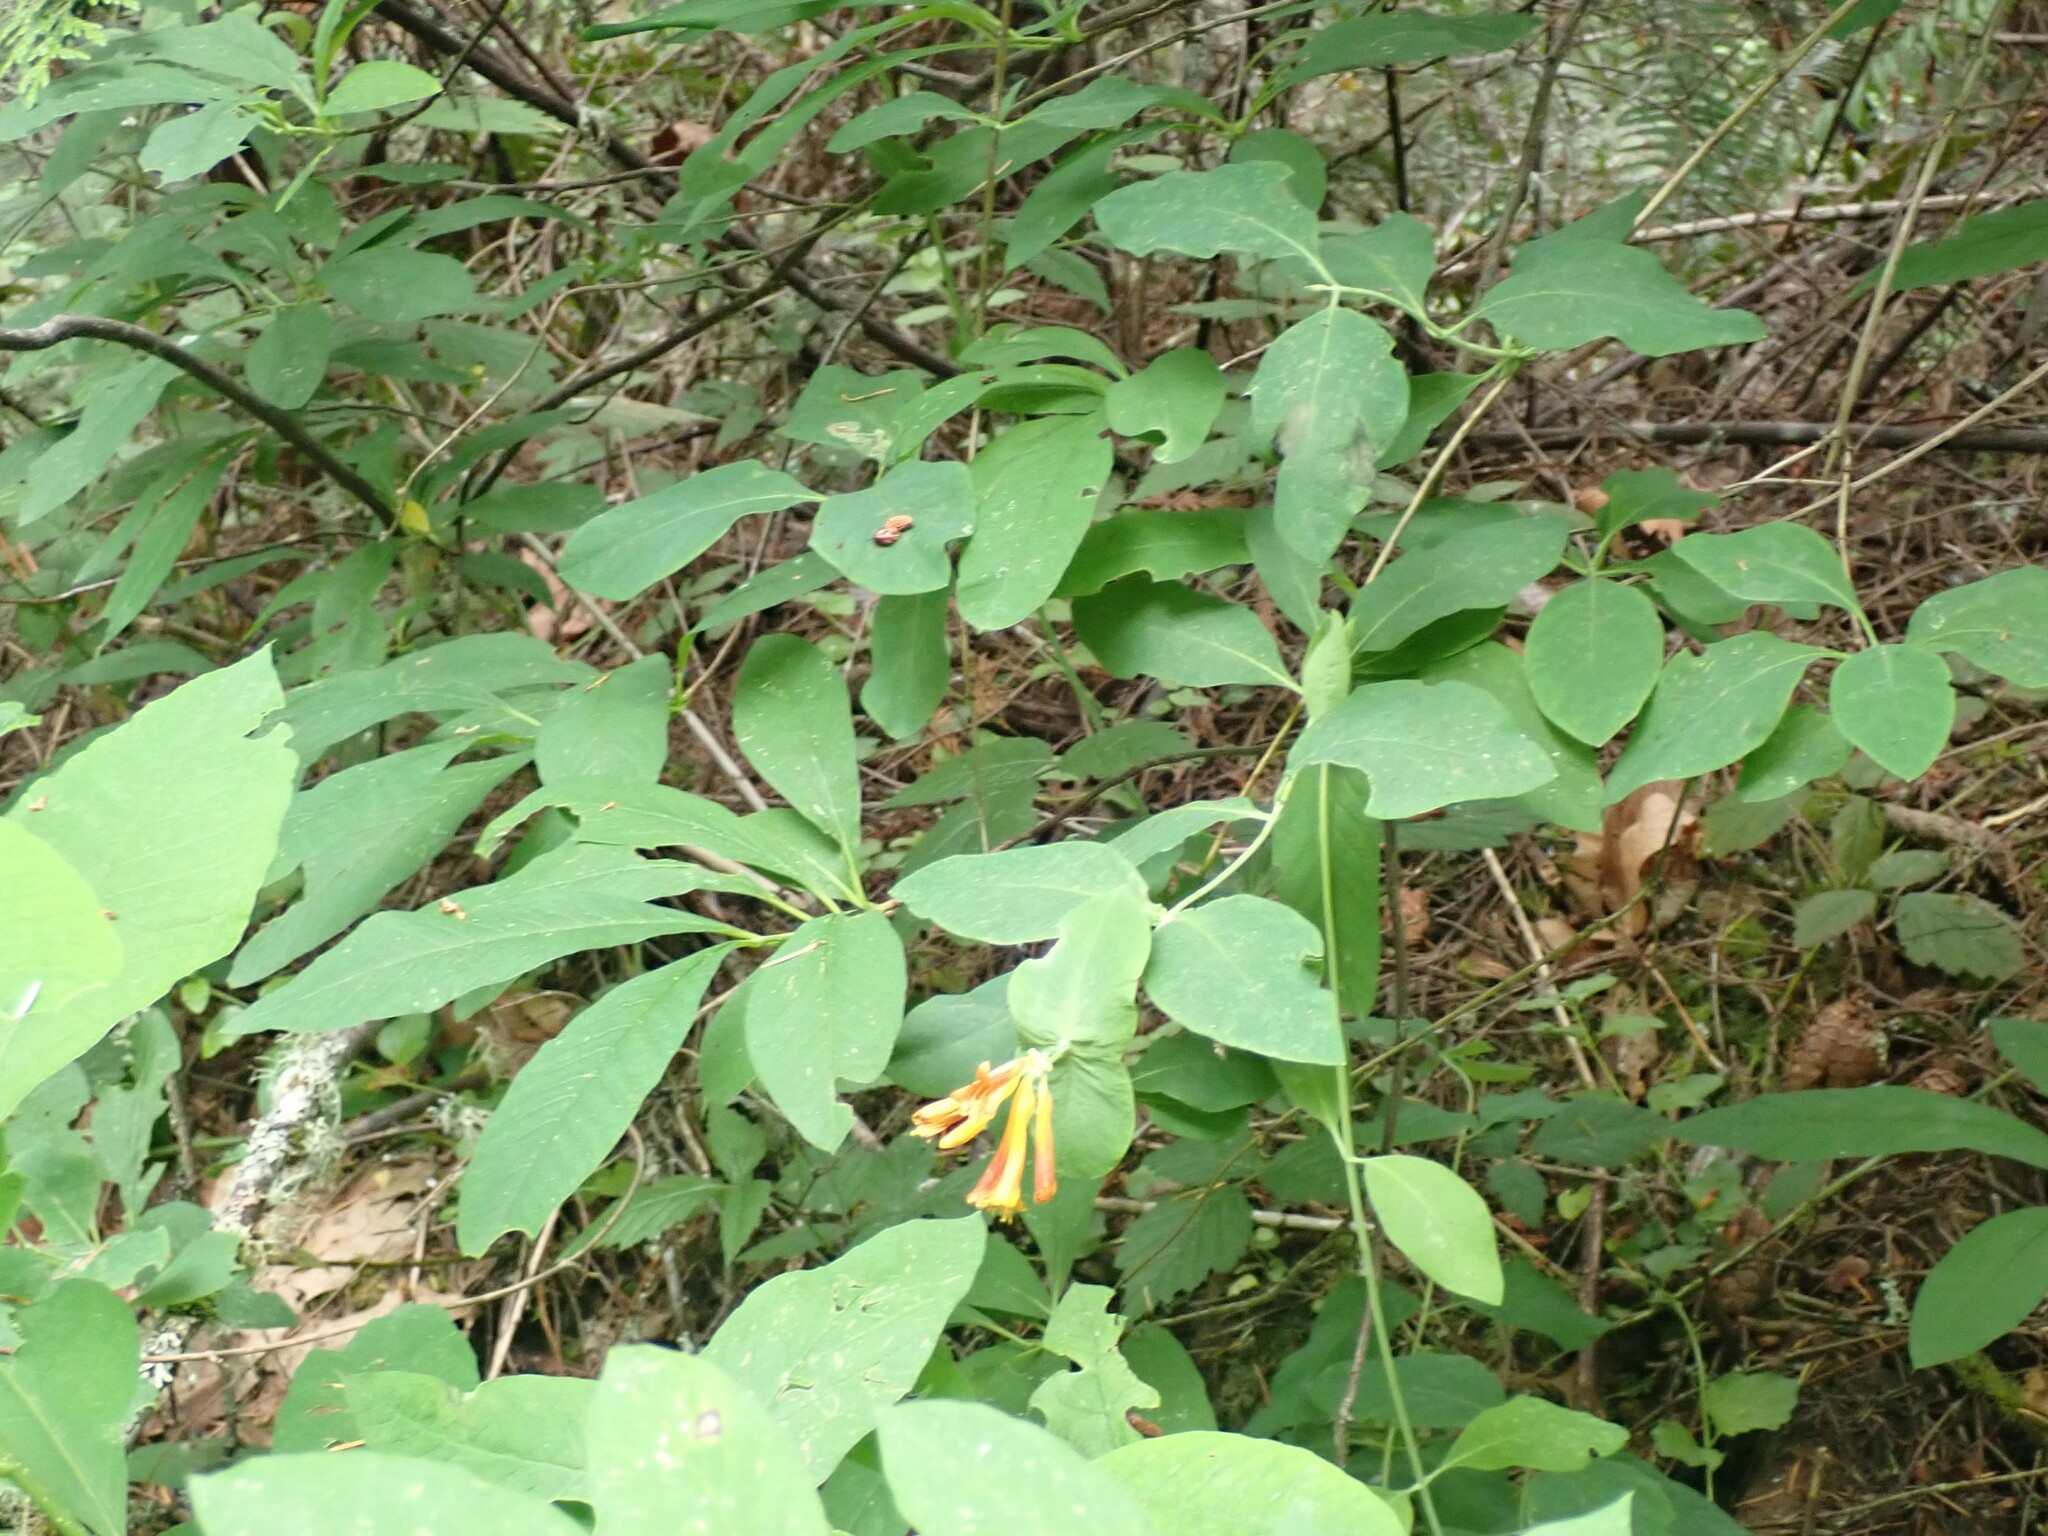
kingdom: Plantae
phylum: Tracheophyta
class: Magnoliopsida
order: Dipsacales
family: Caprifoliaceae
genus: Lonicera
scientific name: Lonicera ciliosa
